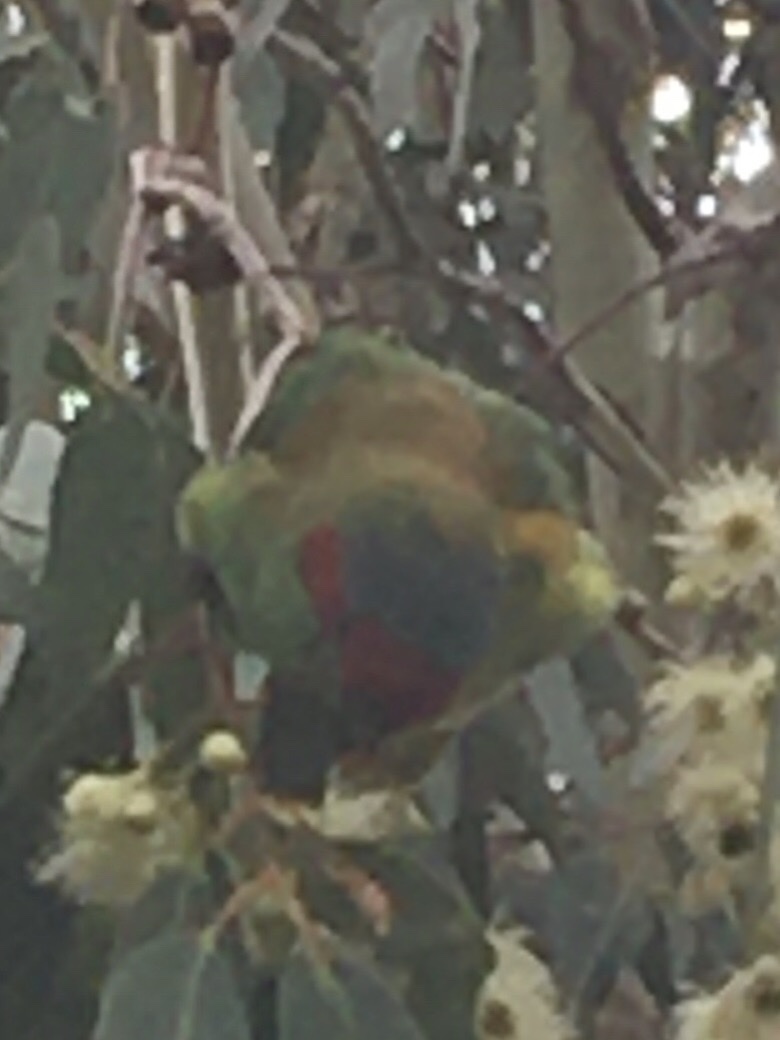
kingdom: Animalia
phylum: Chordata
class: Aves
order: Psittaciformes
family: Psittacidae
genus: Glossopsitta
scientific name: Glossopsitta concinna
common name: Musk lorikeet
